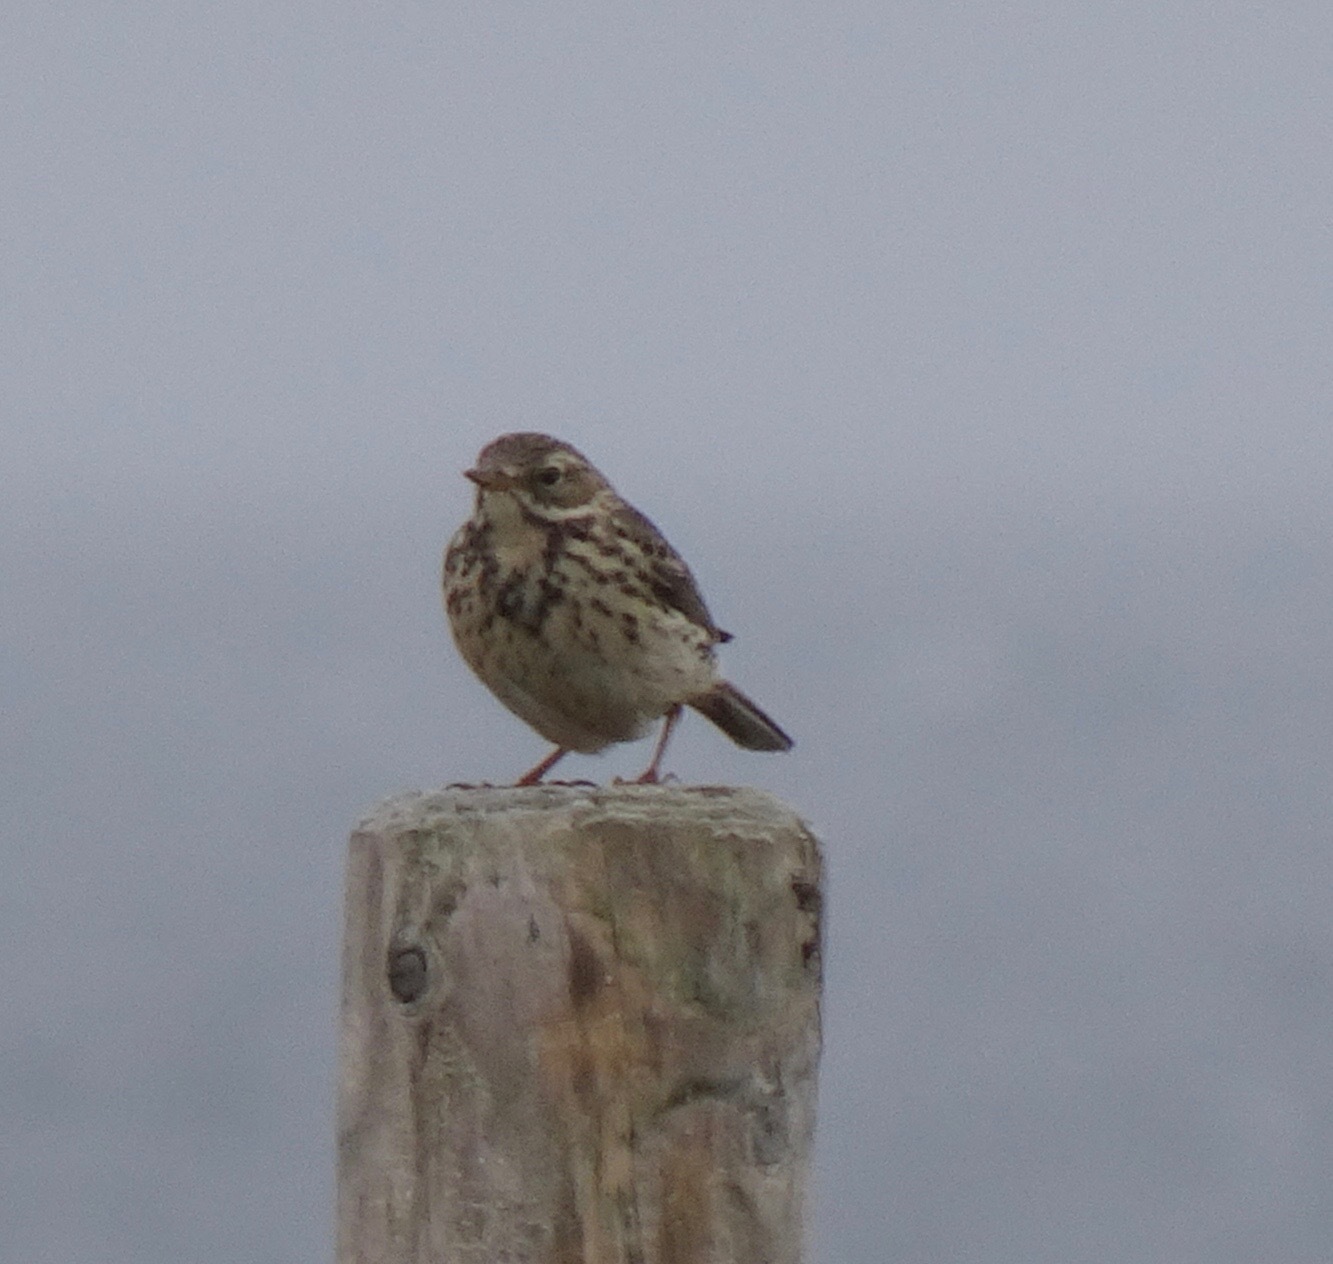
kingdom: Animalia
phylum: Chordata
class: Aves
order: Passeriformes
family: Motacillidae
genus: Anthus
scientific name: Anthus pratensis
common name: Meadow pipit
